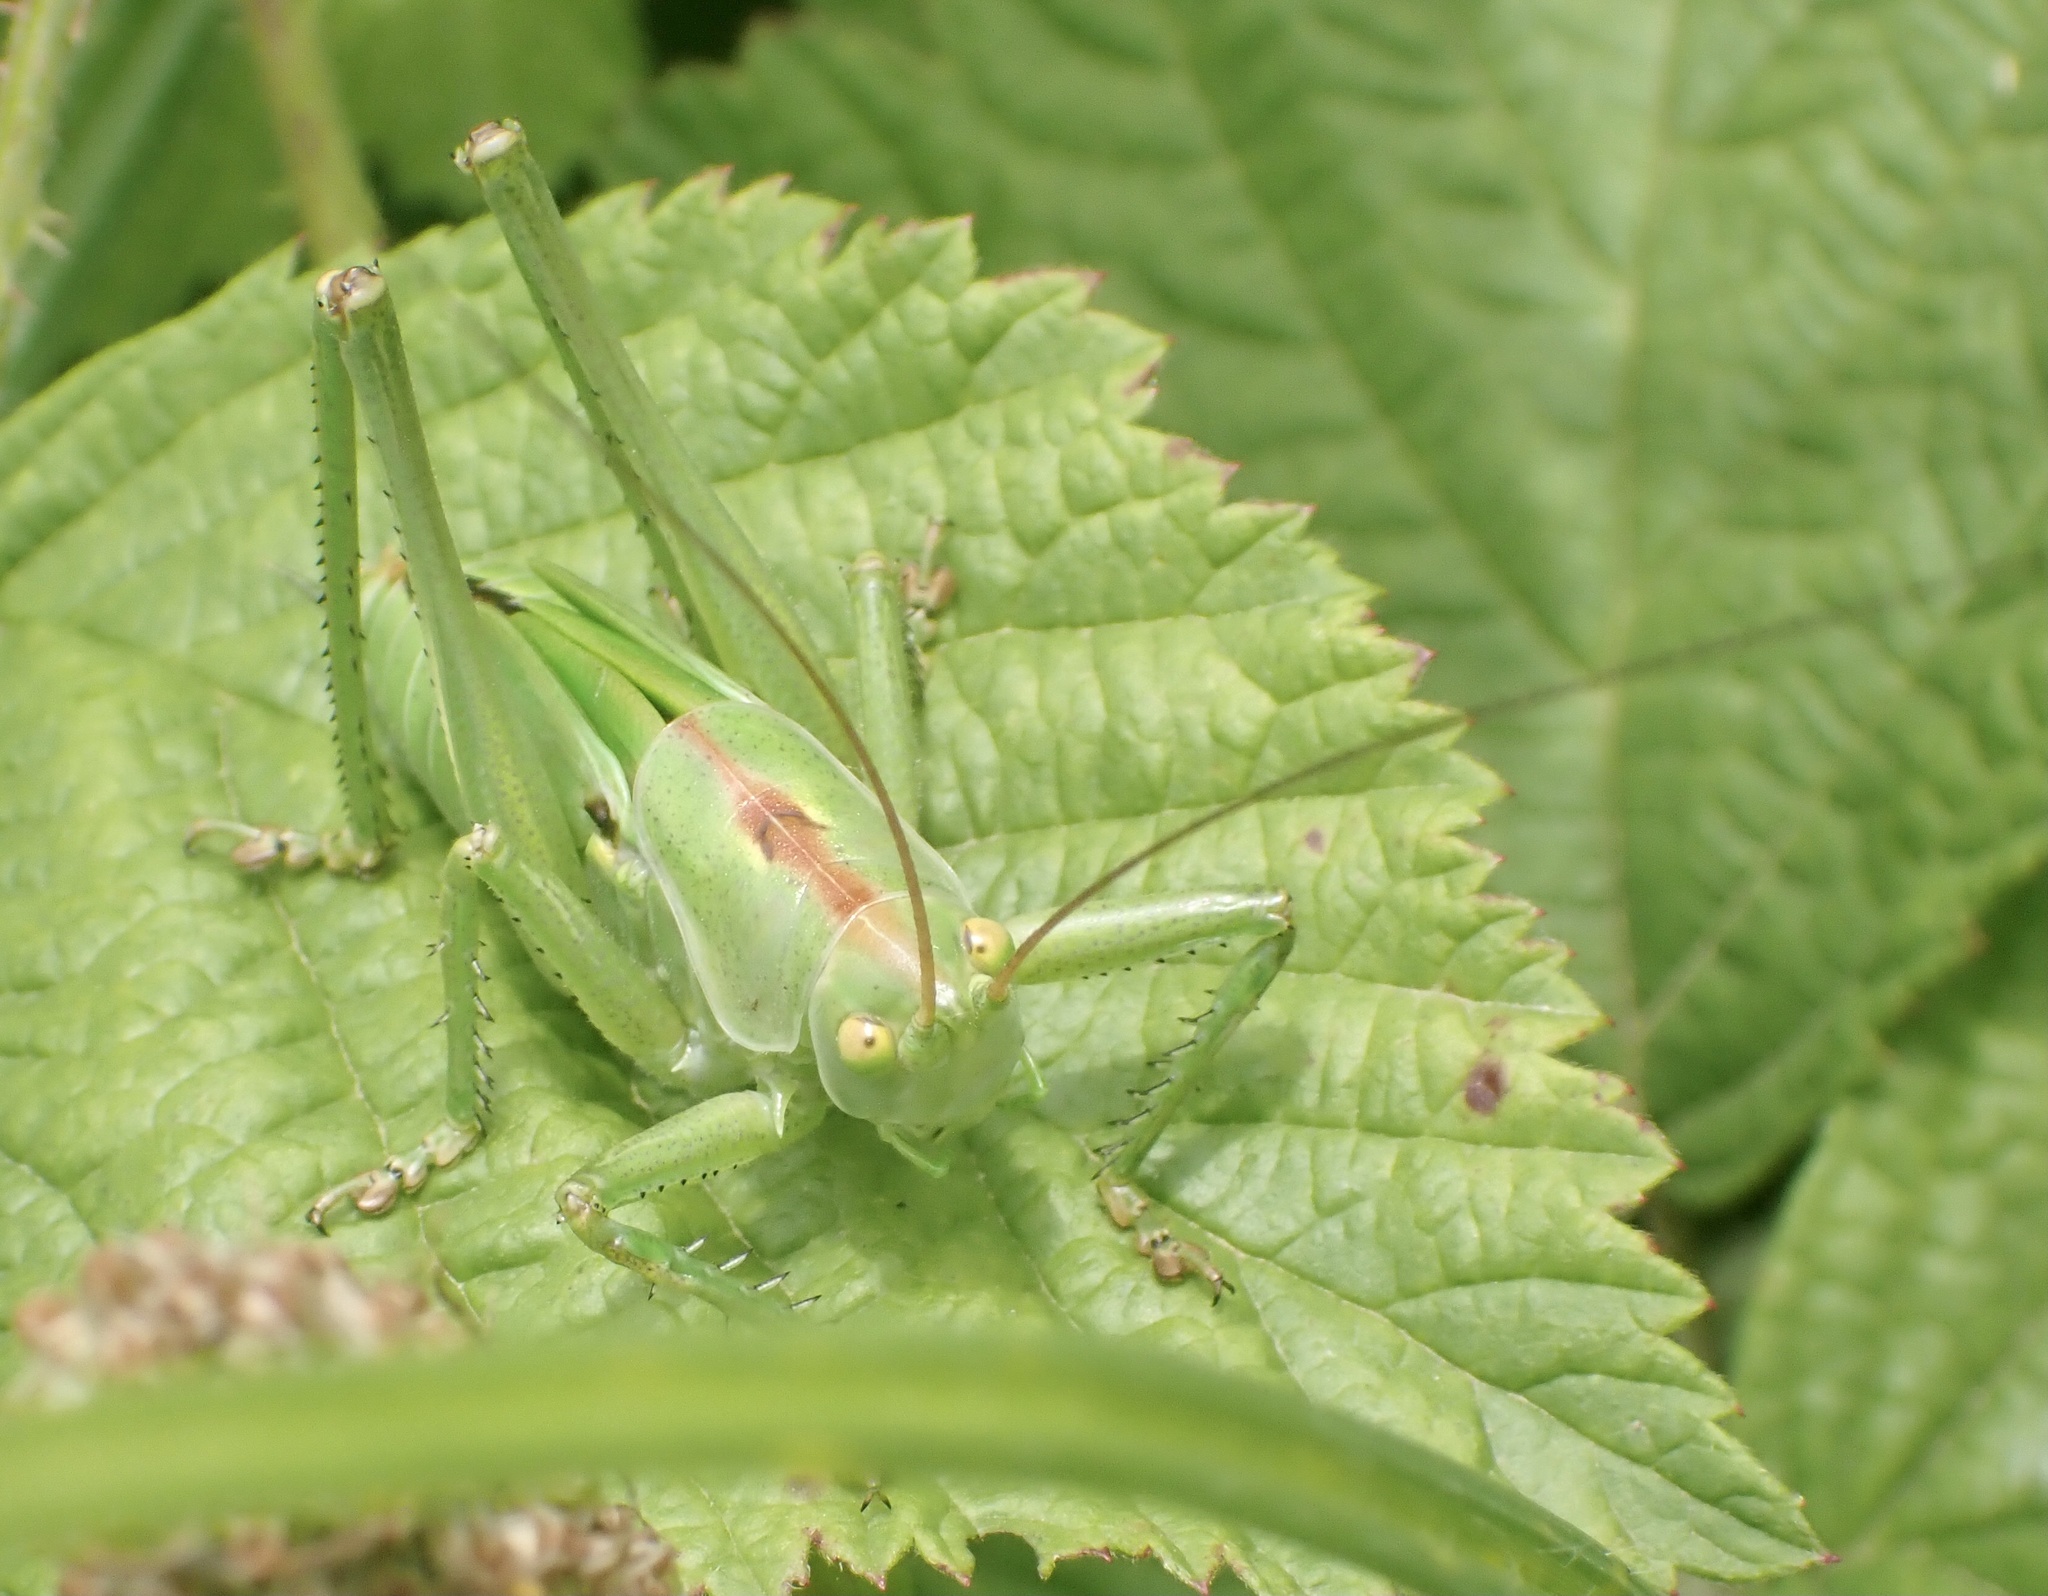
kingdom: Animalia
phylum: Arthropoda
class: Insecta
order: Orthoptera
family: Tettigoniidae
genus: Tettigonia
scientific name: Tettigonia viridissima
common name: Great green bush-cricket
